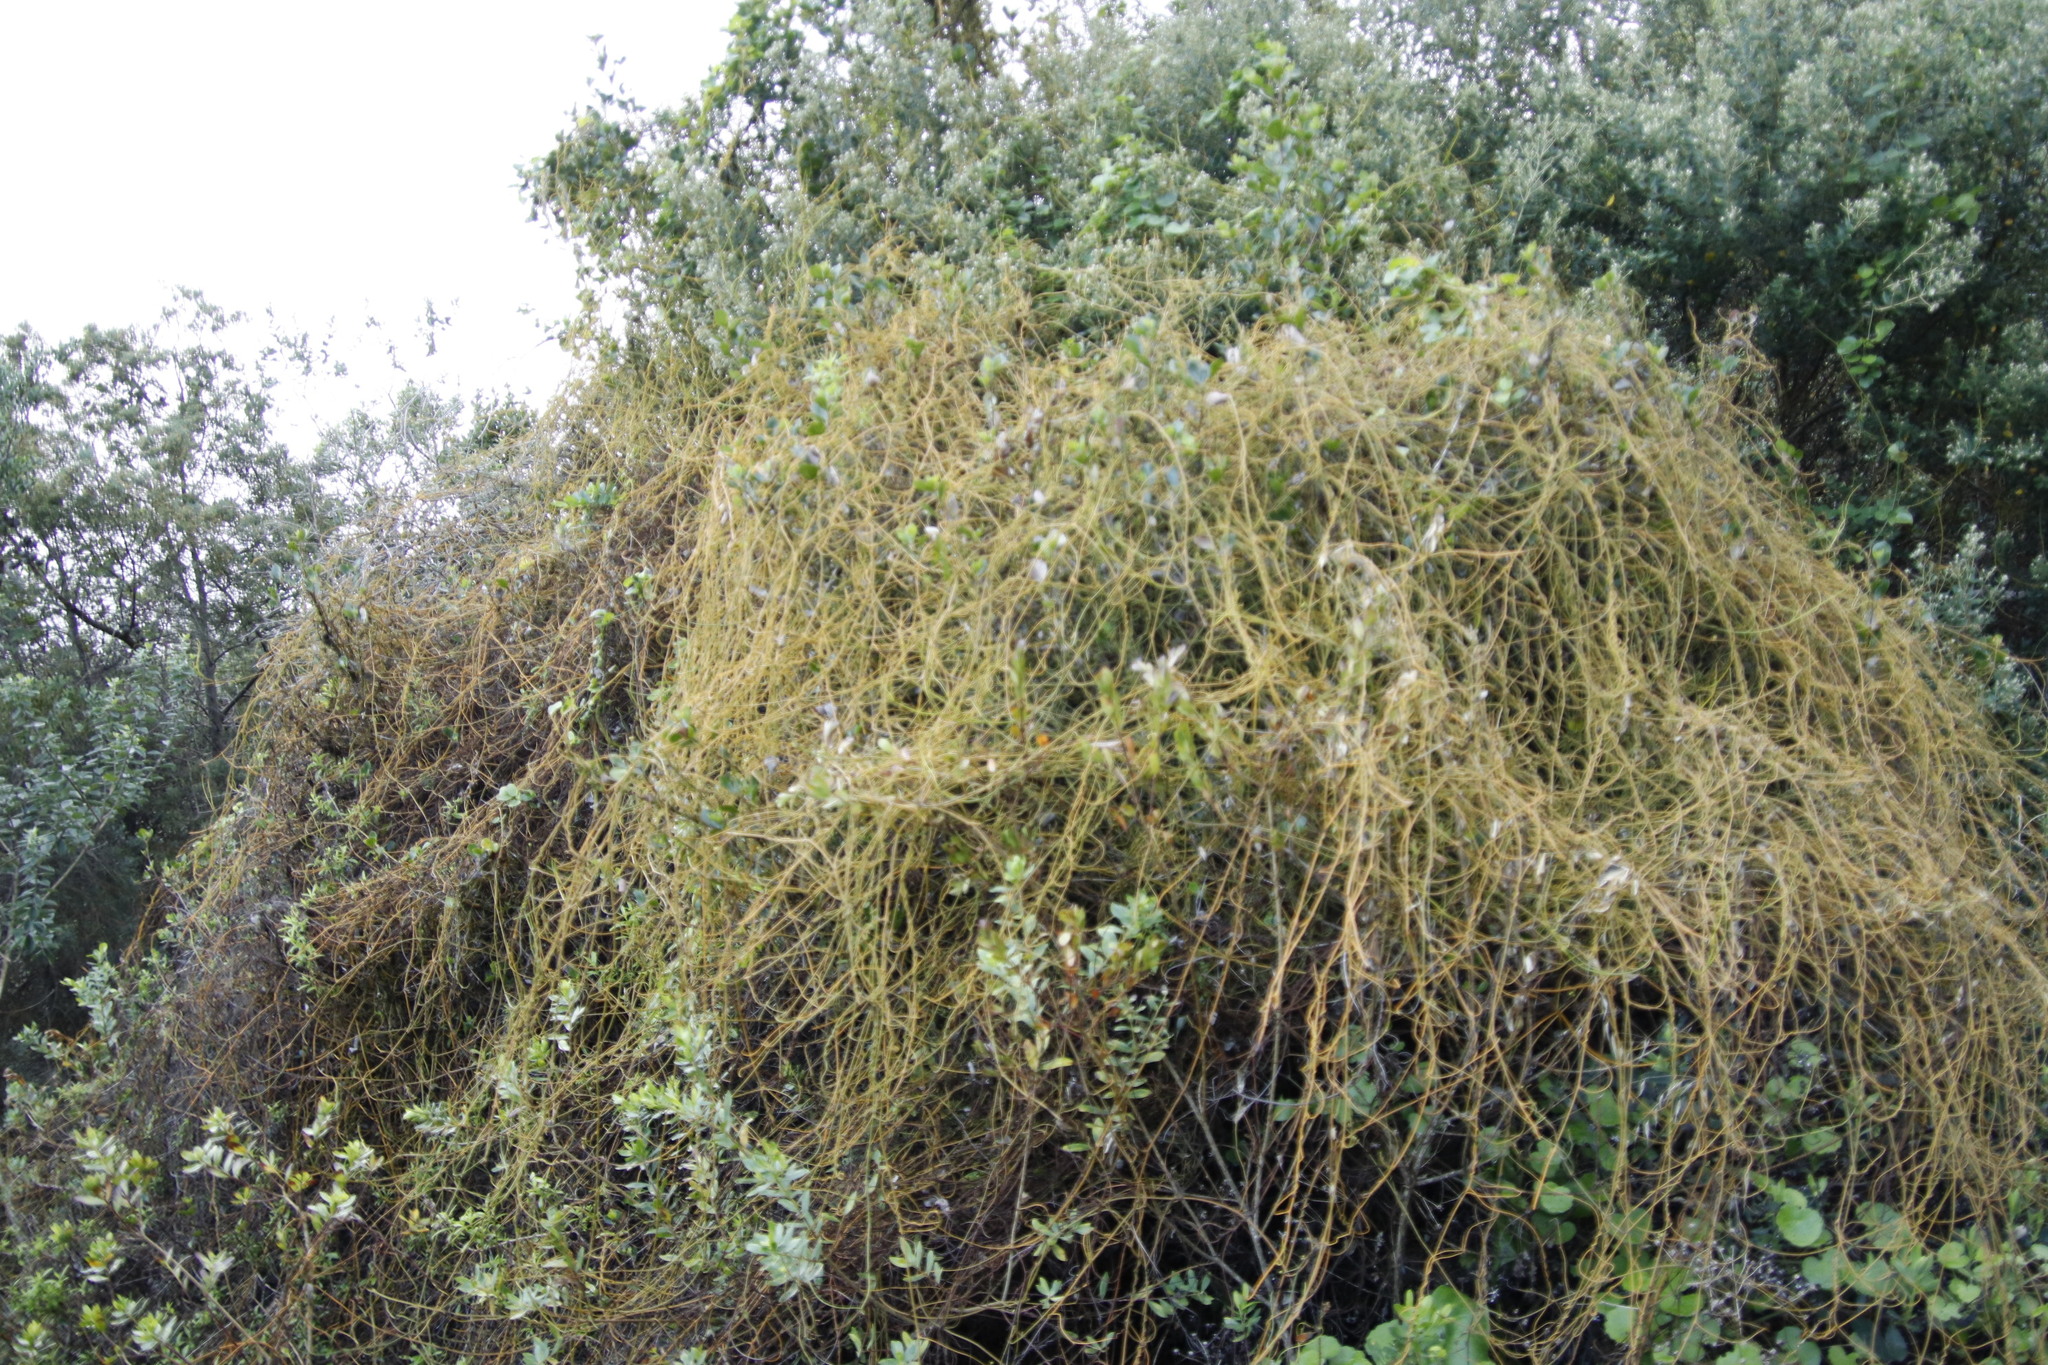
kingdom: Plantae
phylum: Tracheophyta
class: Magnoliopsida
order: Laurales
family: Lauraceae
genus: Cassytha
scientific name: Cassytha ciliolata
